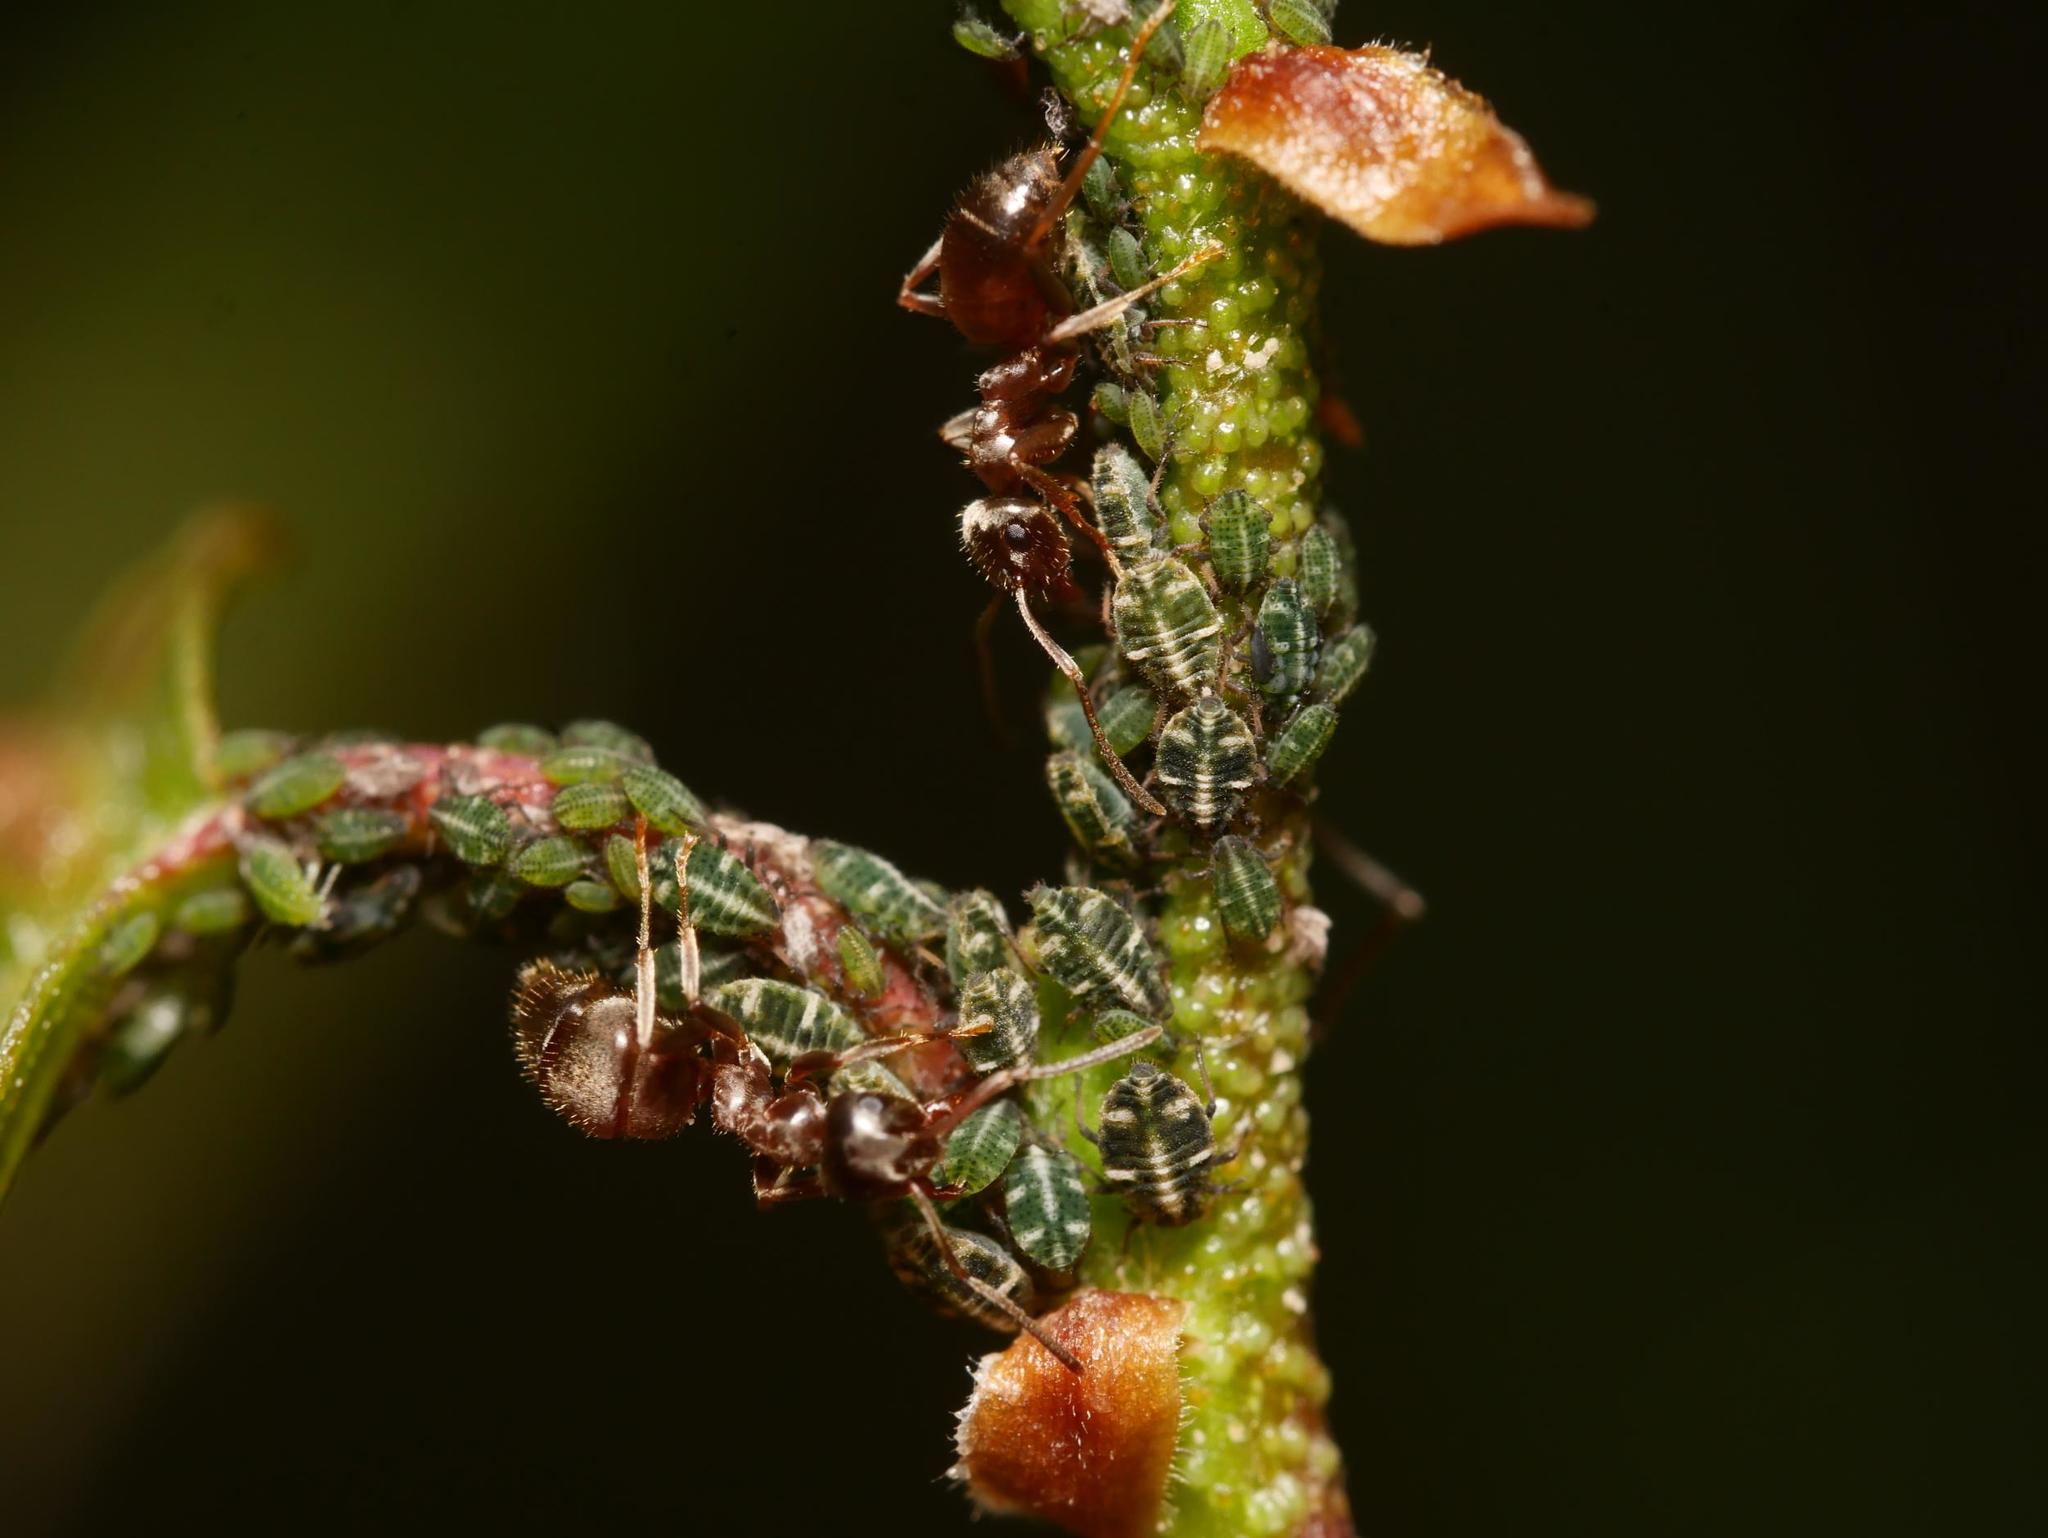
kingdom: Animalia
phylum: Arthropoda
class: Insecta
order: Hemiptera
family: Aphididae
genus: Glyphina
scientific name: Glyphina betulae
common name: Aphid
